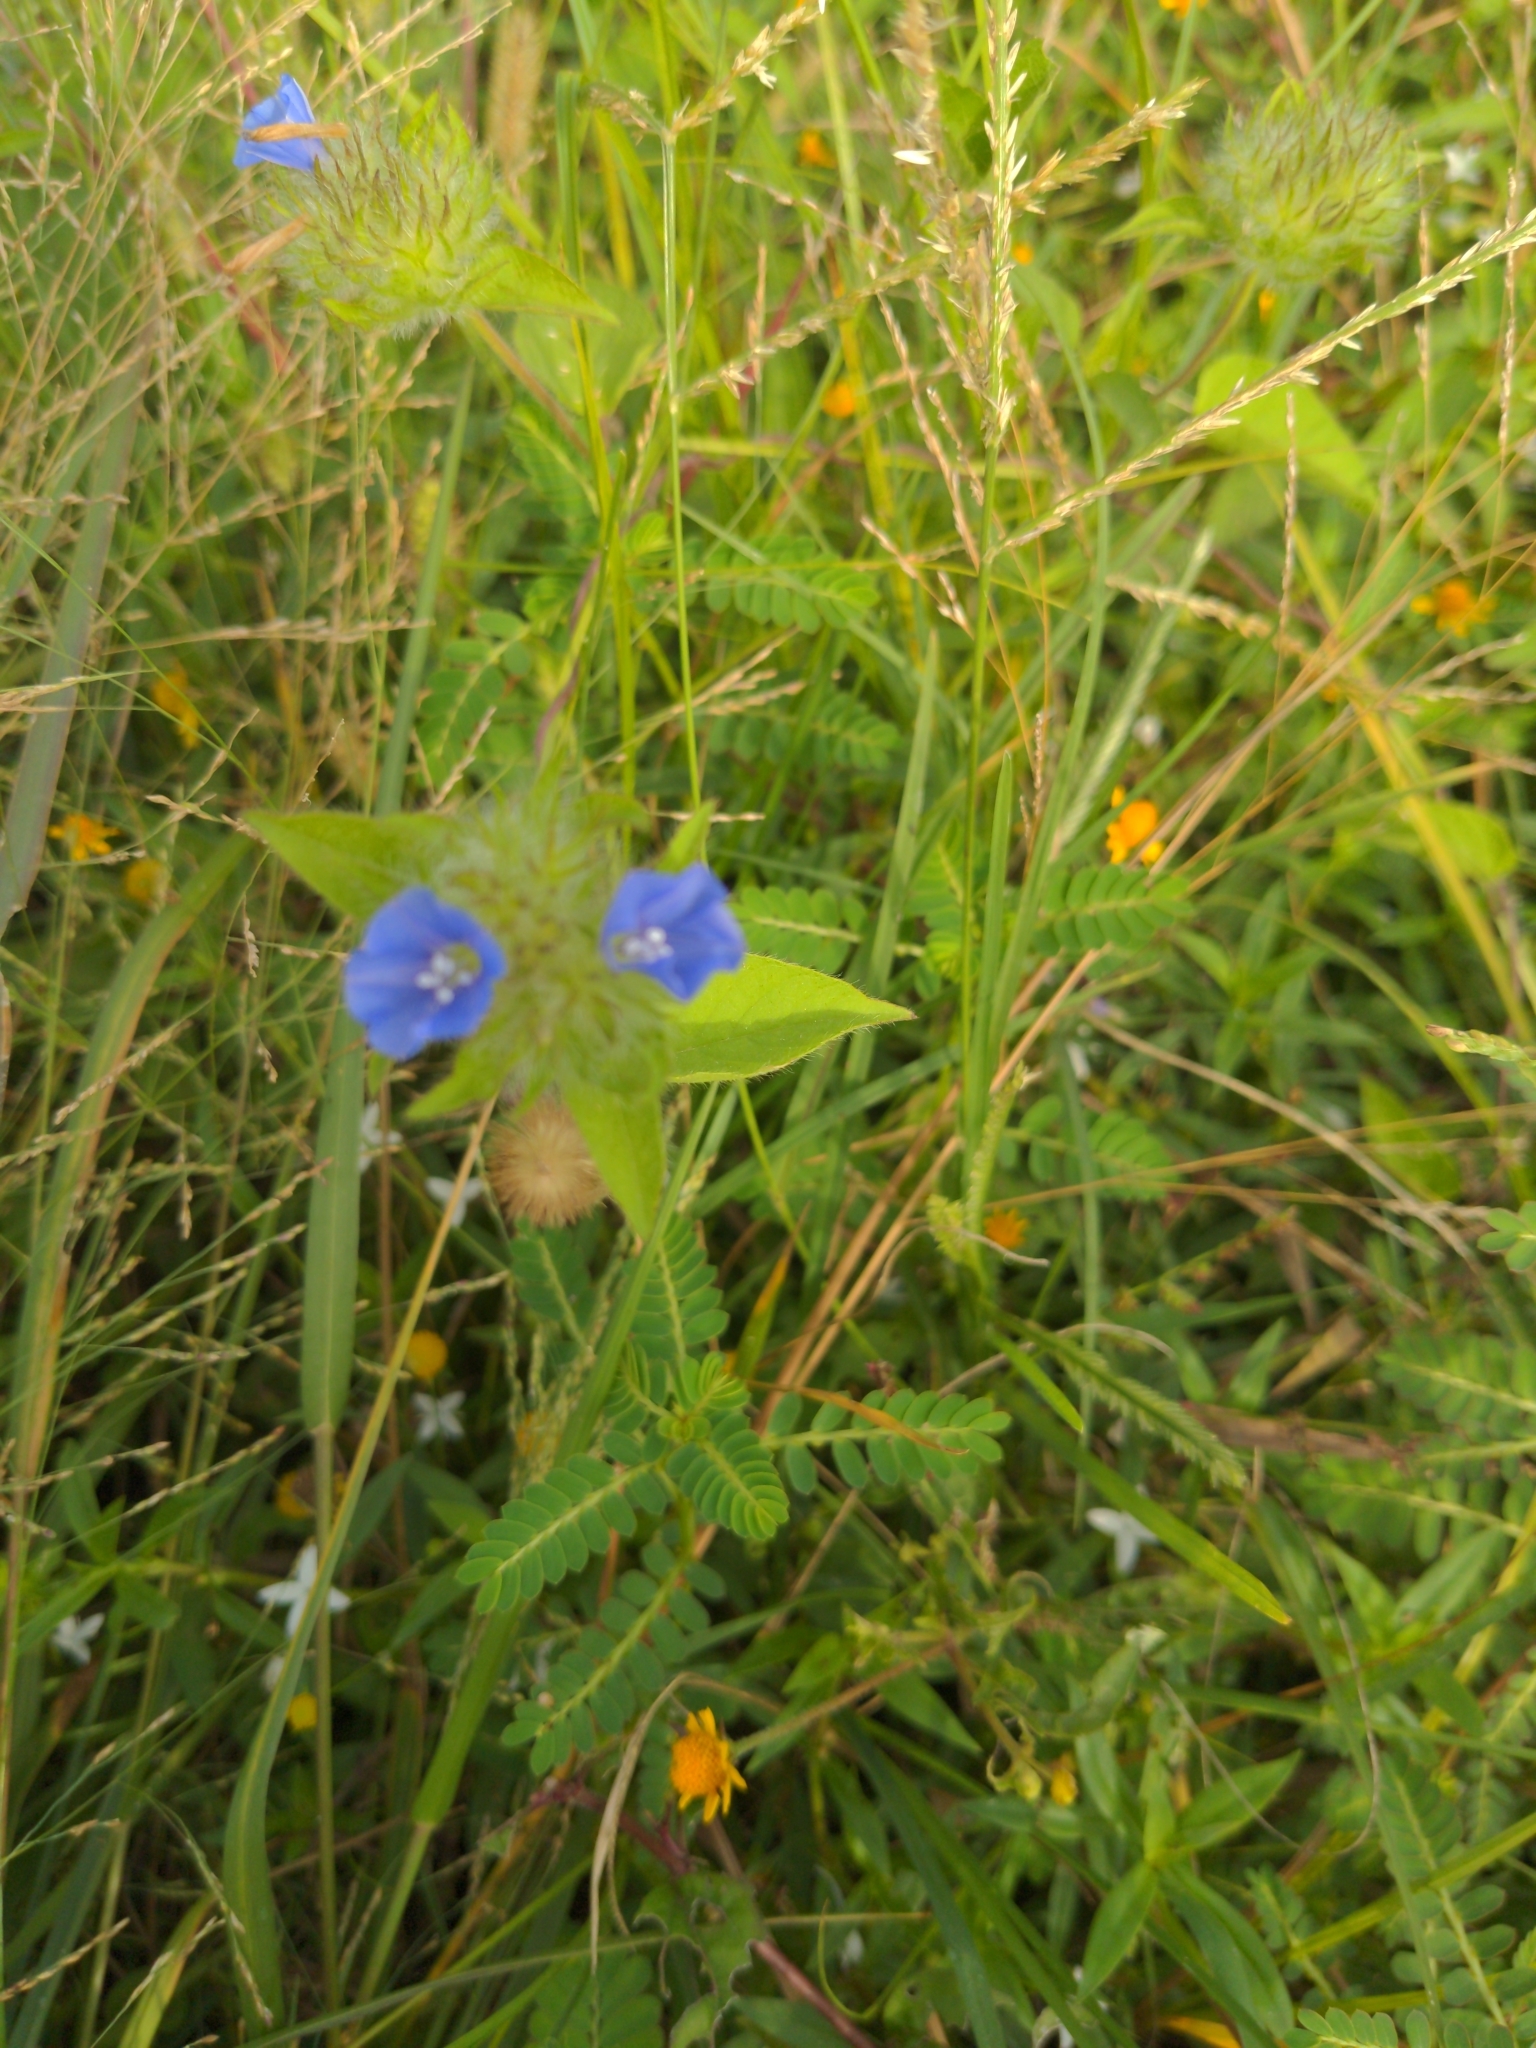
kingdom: Plantae
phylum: Tracheophyta
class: Magnoliopsida
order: Solanales
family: Convolvulaceae
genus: Jacquemontia
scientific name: Jacquemontia tamnifolia
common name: Hairy clustervine
